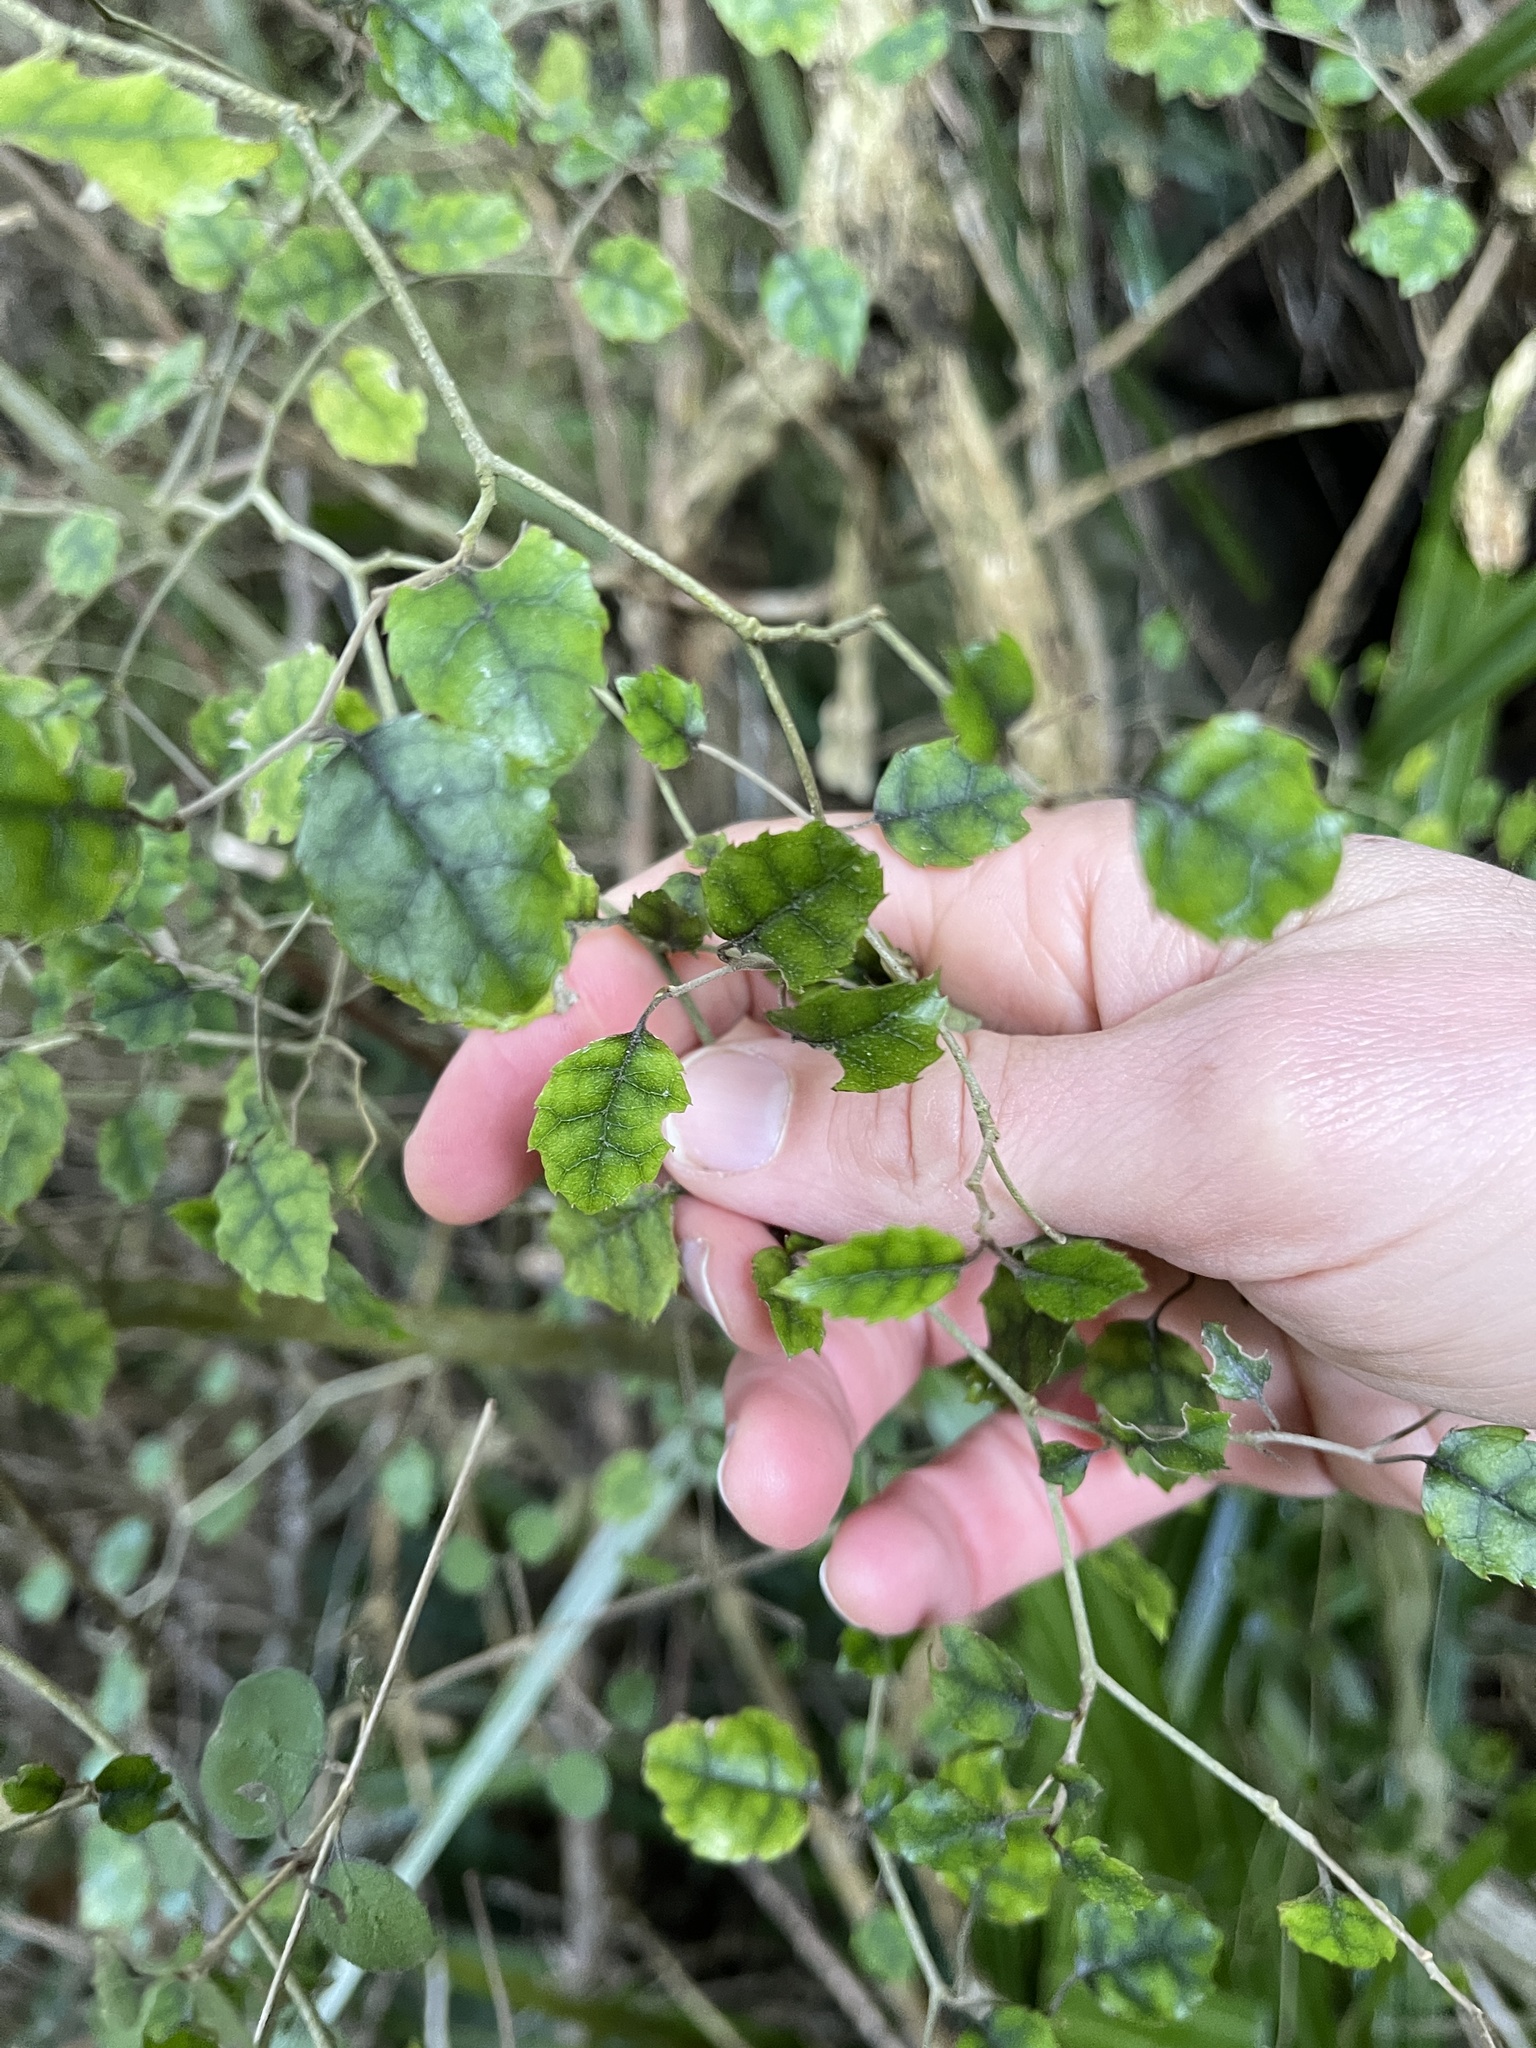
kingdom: Plantae
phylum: Tracheophyta
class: Magnoliopsida
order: Asterales
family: Rousseaceae
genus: Carpodetus
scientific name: Carpodetus serratus
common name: White mapau
